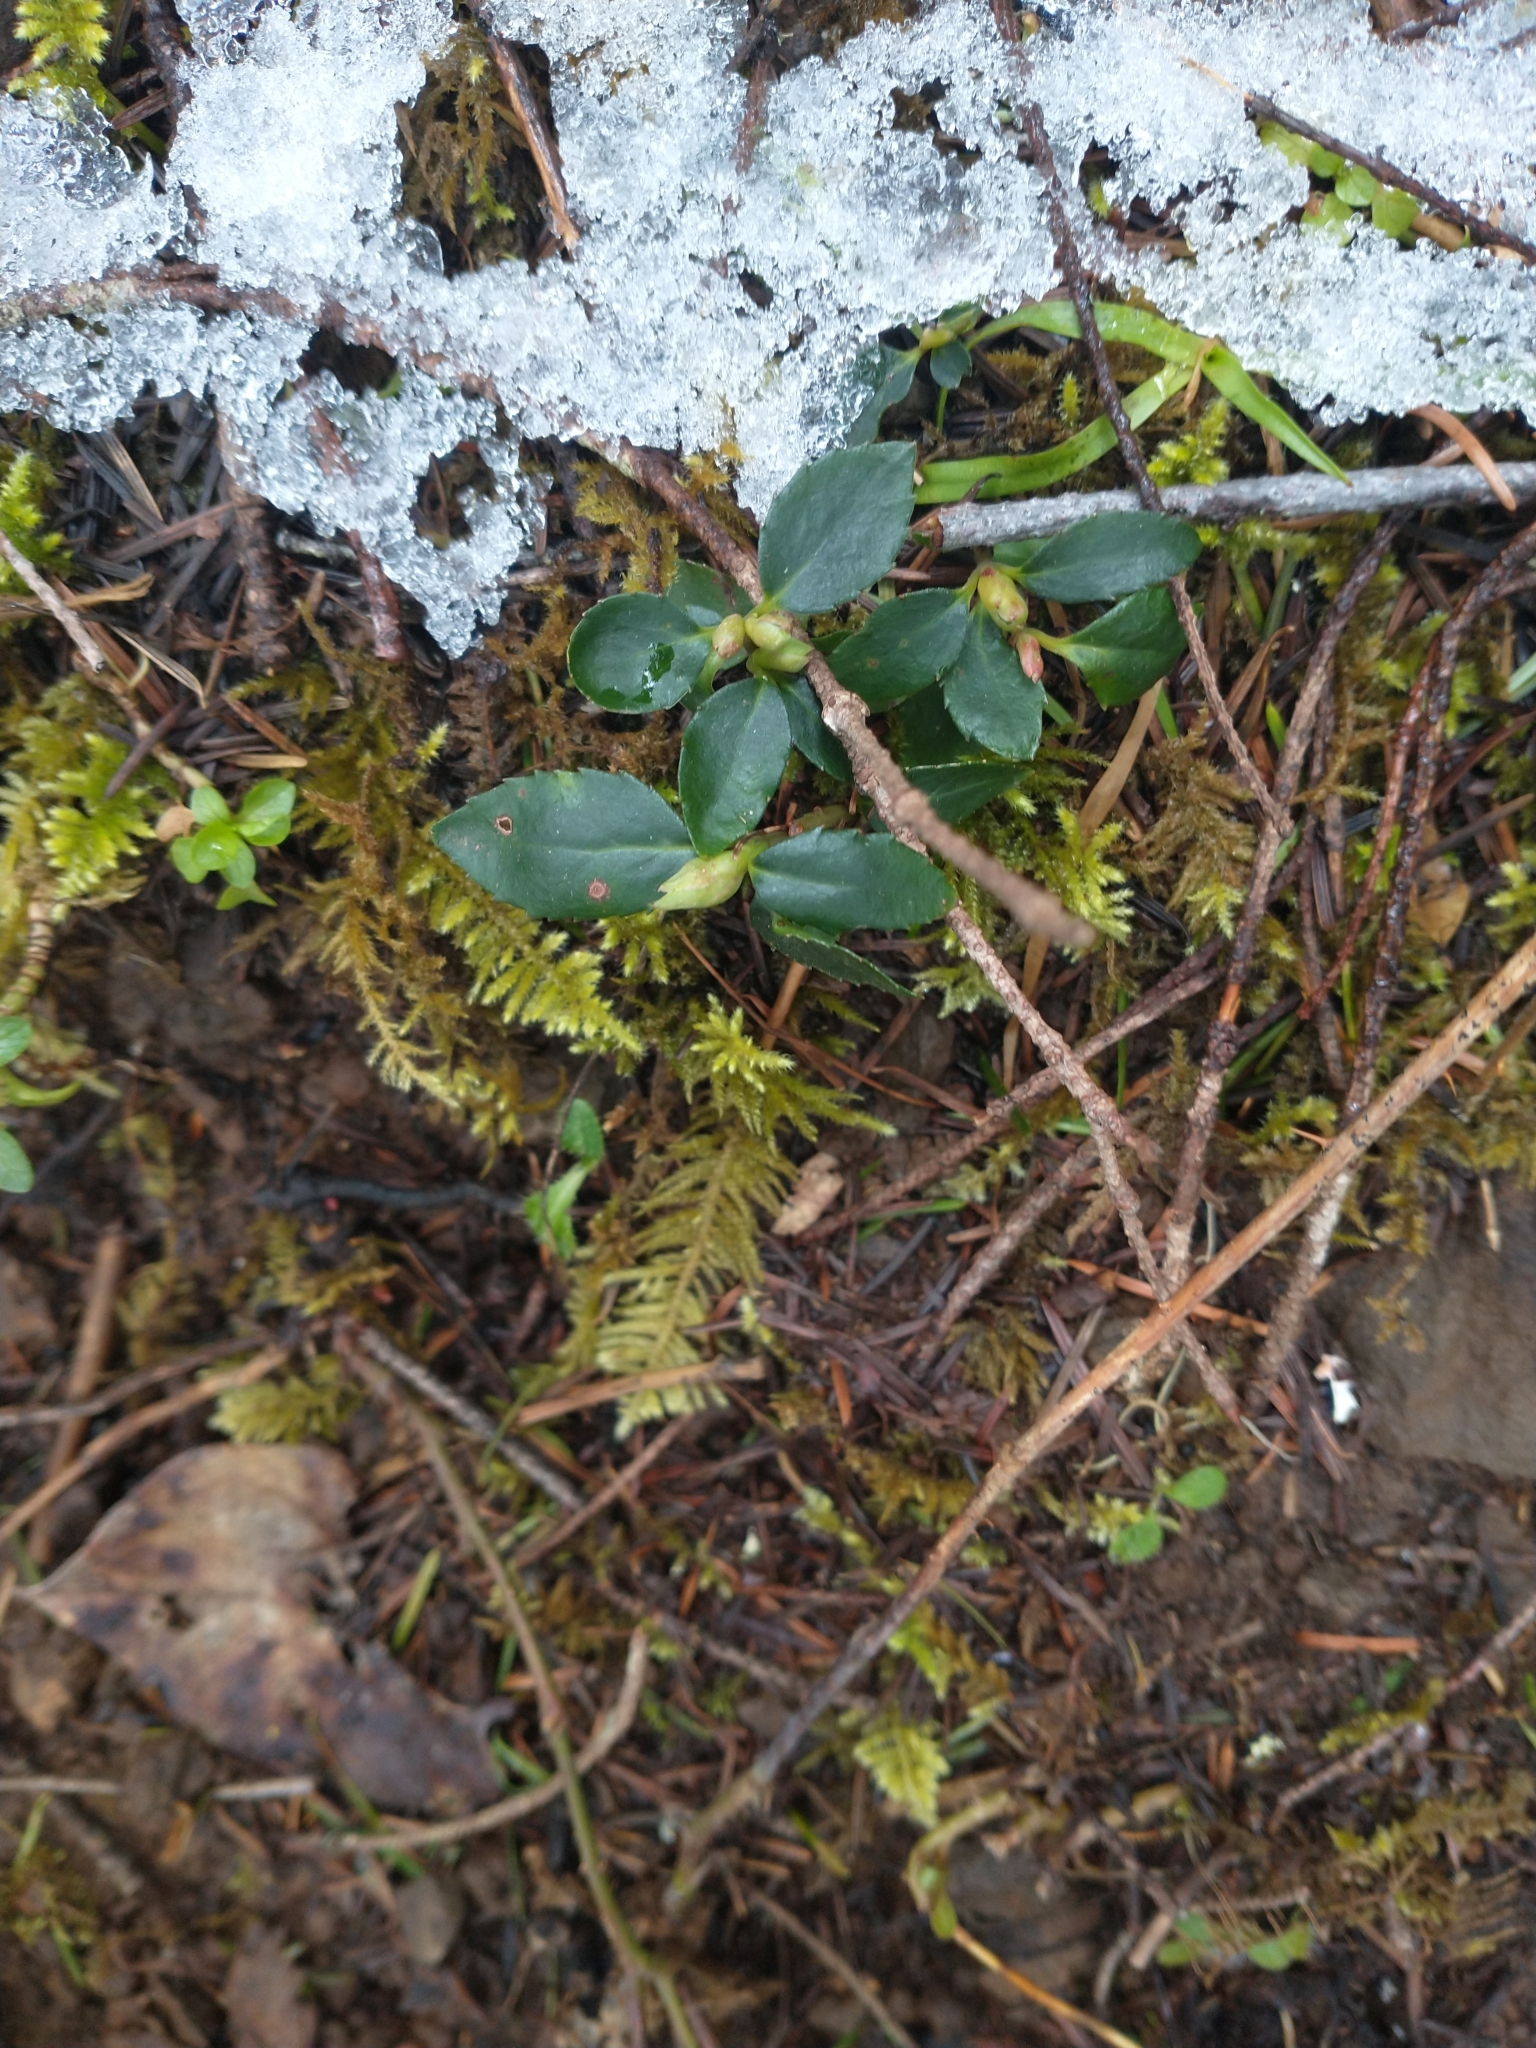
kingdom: Plantae
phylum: Tracheophyta
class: Magnoliopsida
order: Ericales
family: Ericaceae
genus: Chimaphila
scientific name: Chimaphila menziesii
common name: Menzies' pipsissewa
